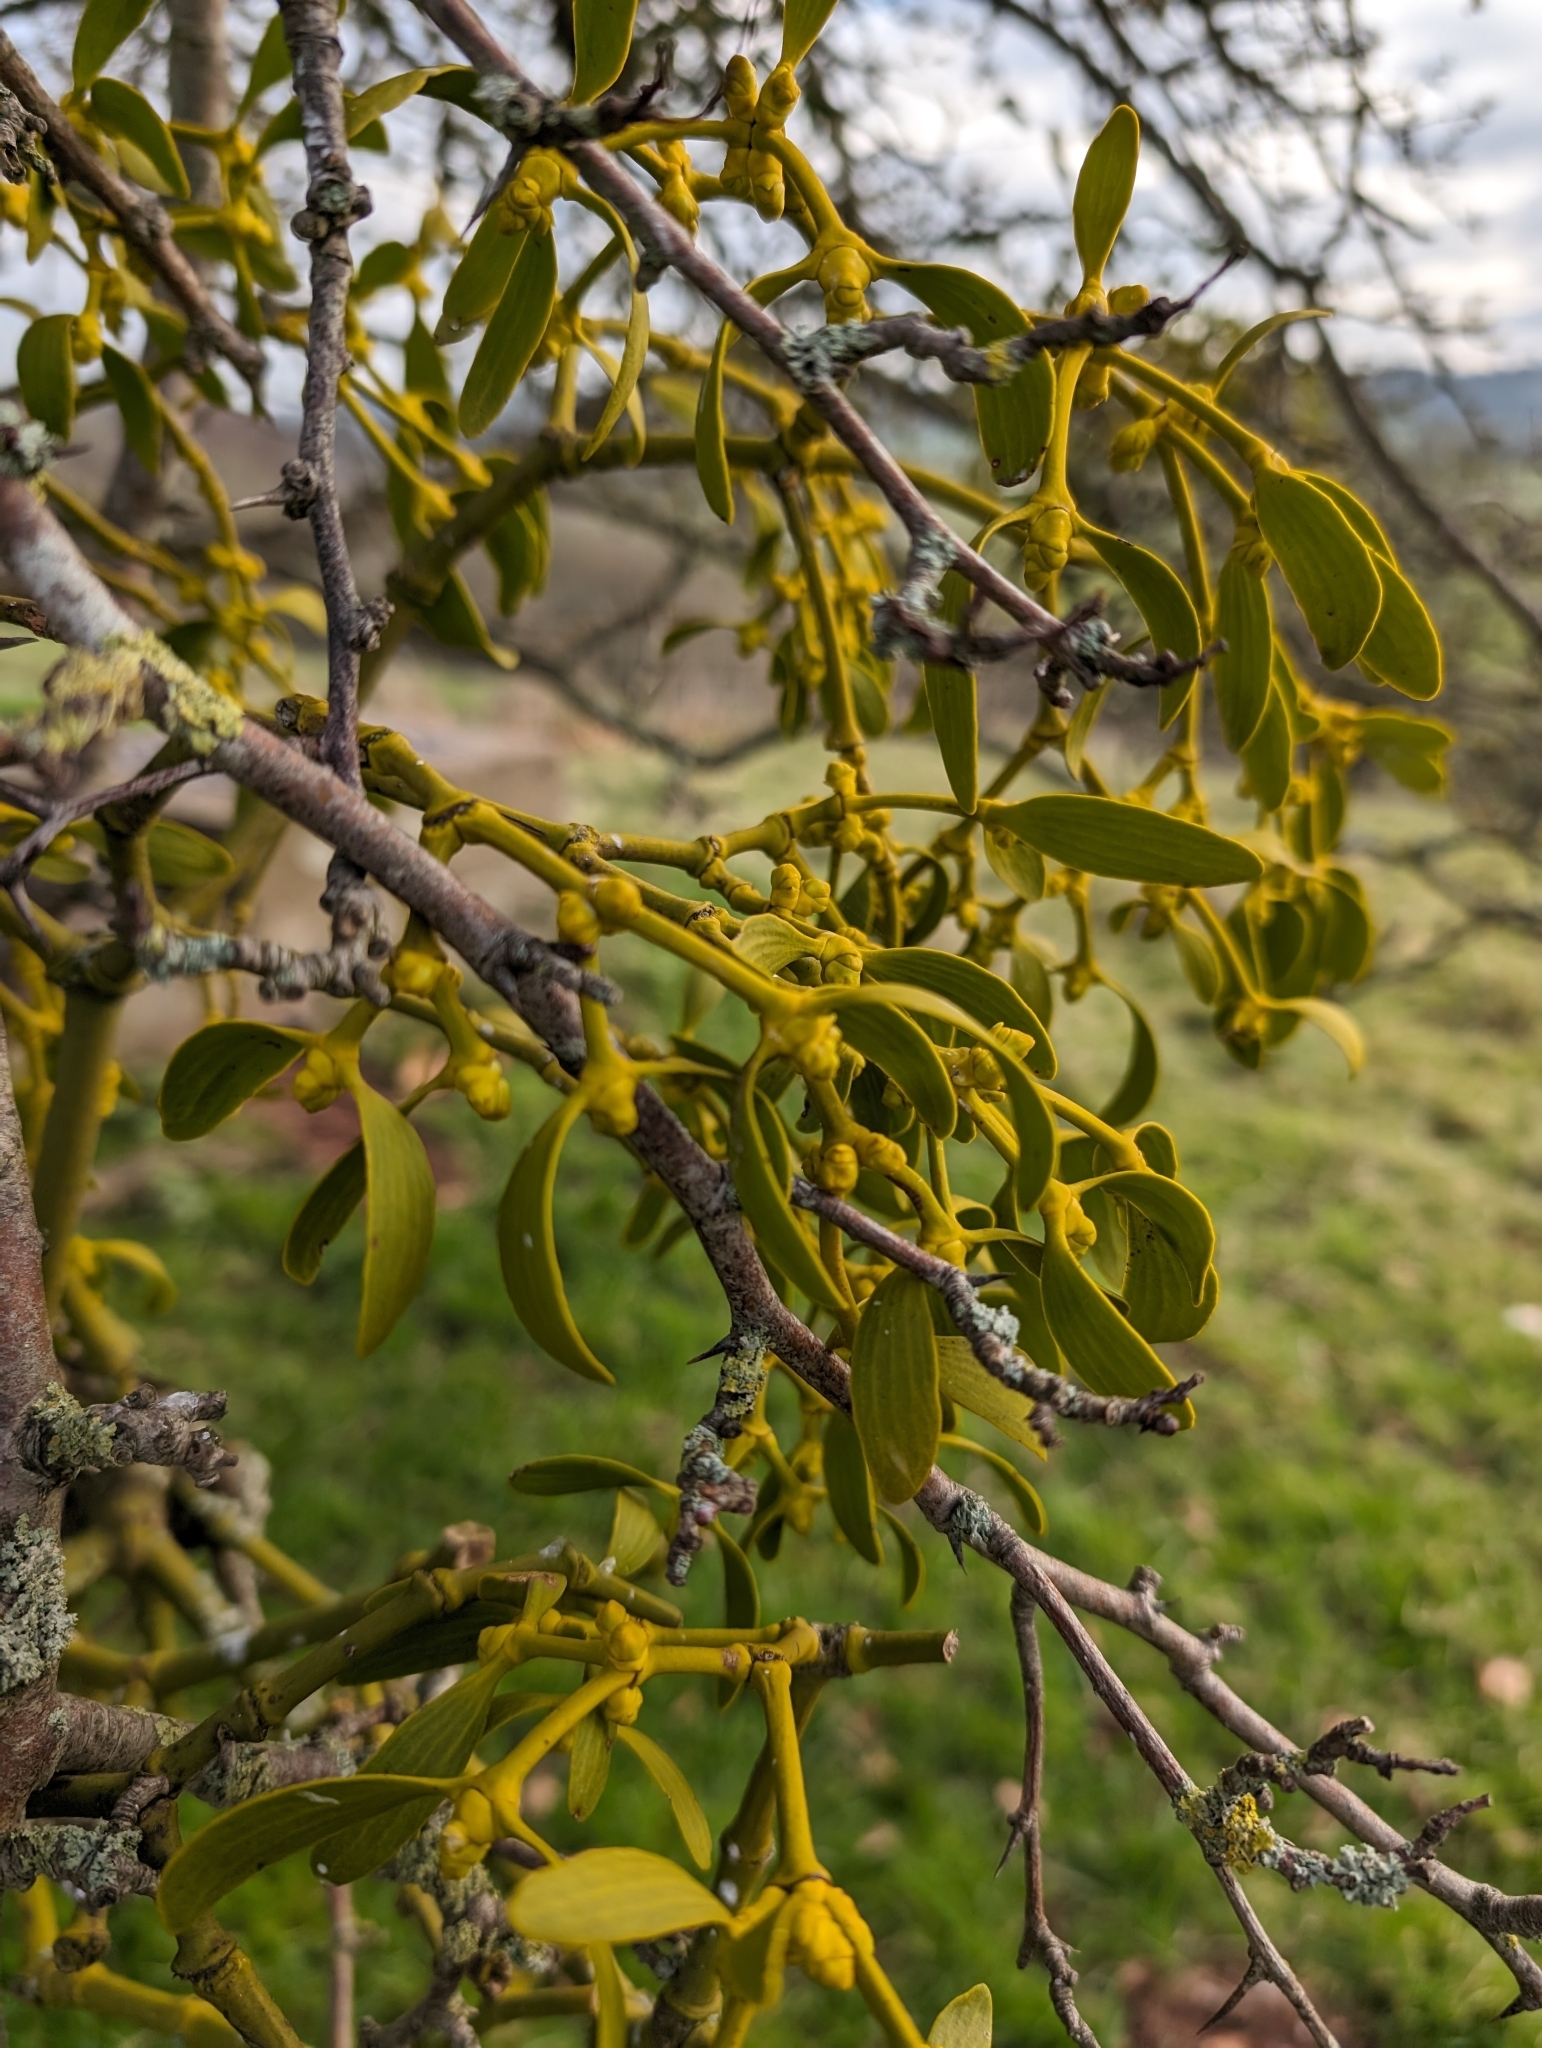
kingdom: Plantae
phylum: Tracheophyta
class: Magnoliopsida
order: Santalales
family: Viscaceae
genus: Viscum
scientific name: Viscum album
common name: Mistletoe
